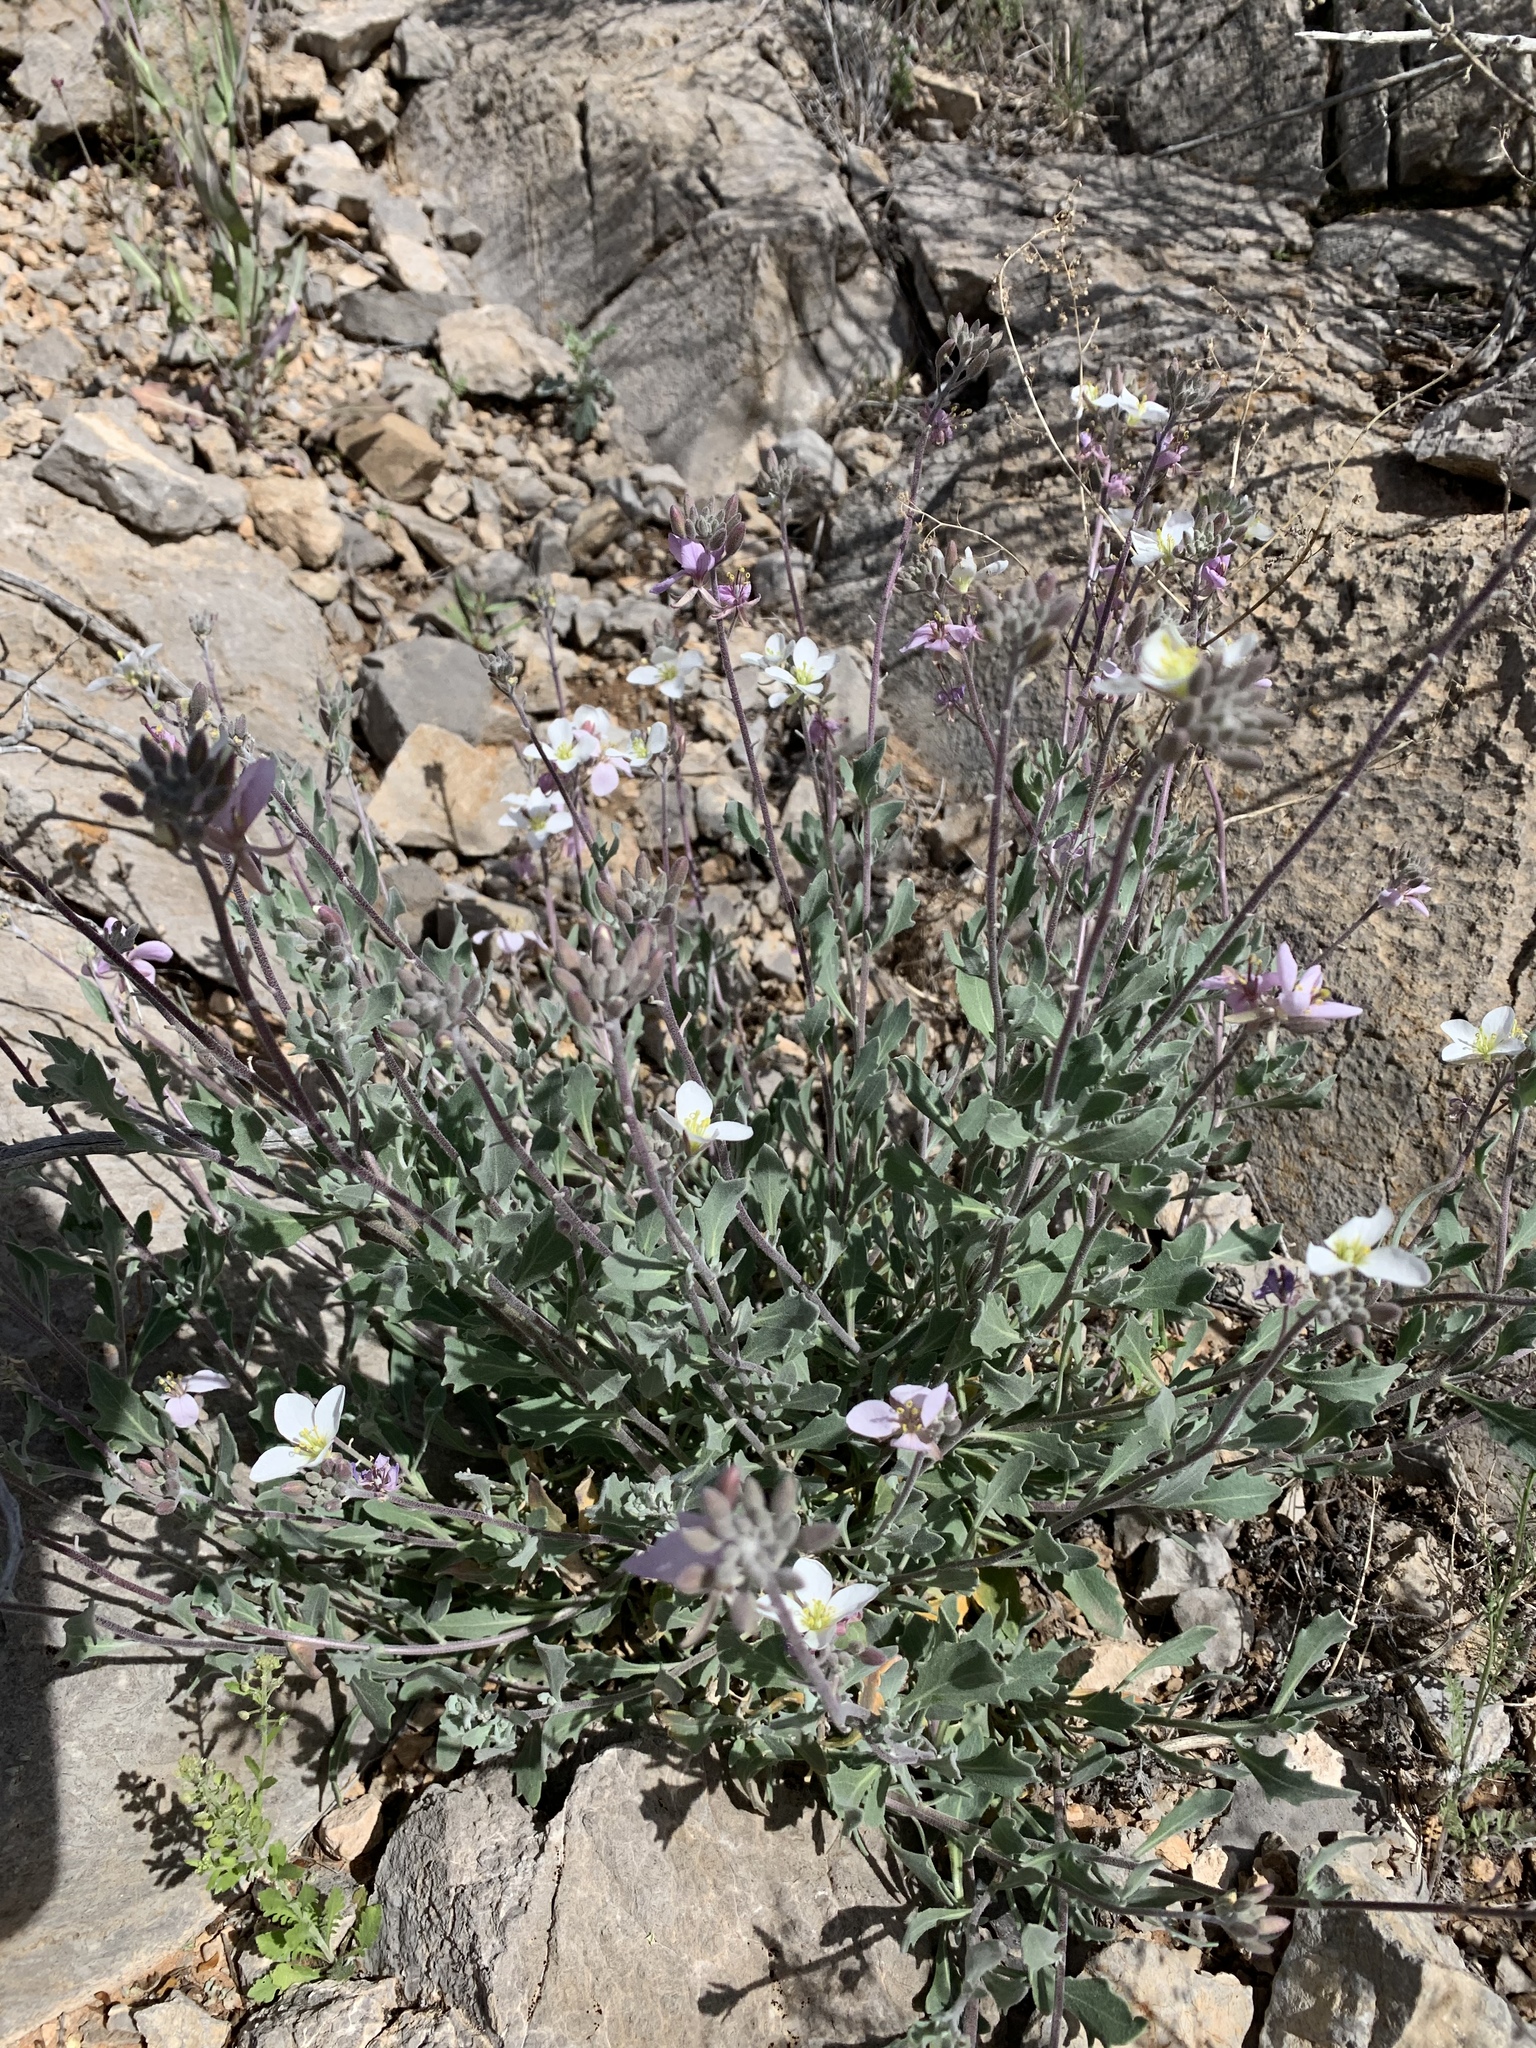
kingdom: Plantae
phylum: Tracheophyta
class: Magnoliopsida
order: Brassicales
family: Brassicaceae
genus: Nerisyrenia
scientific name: Nerisyrenia camporum
